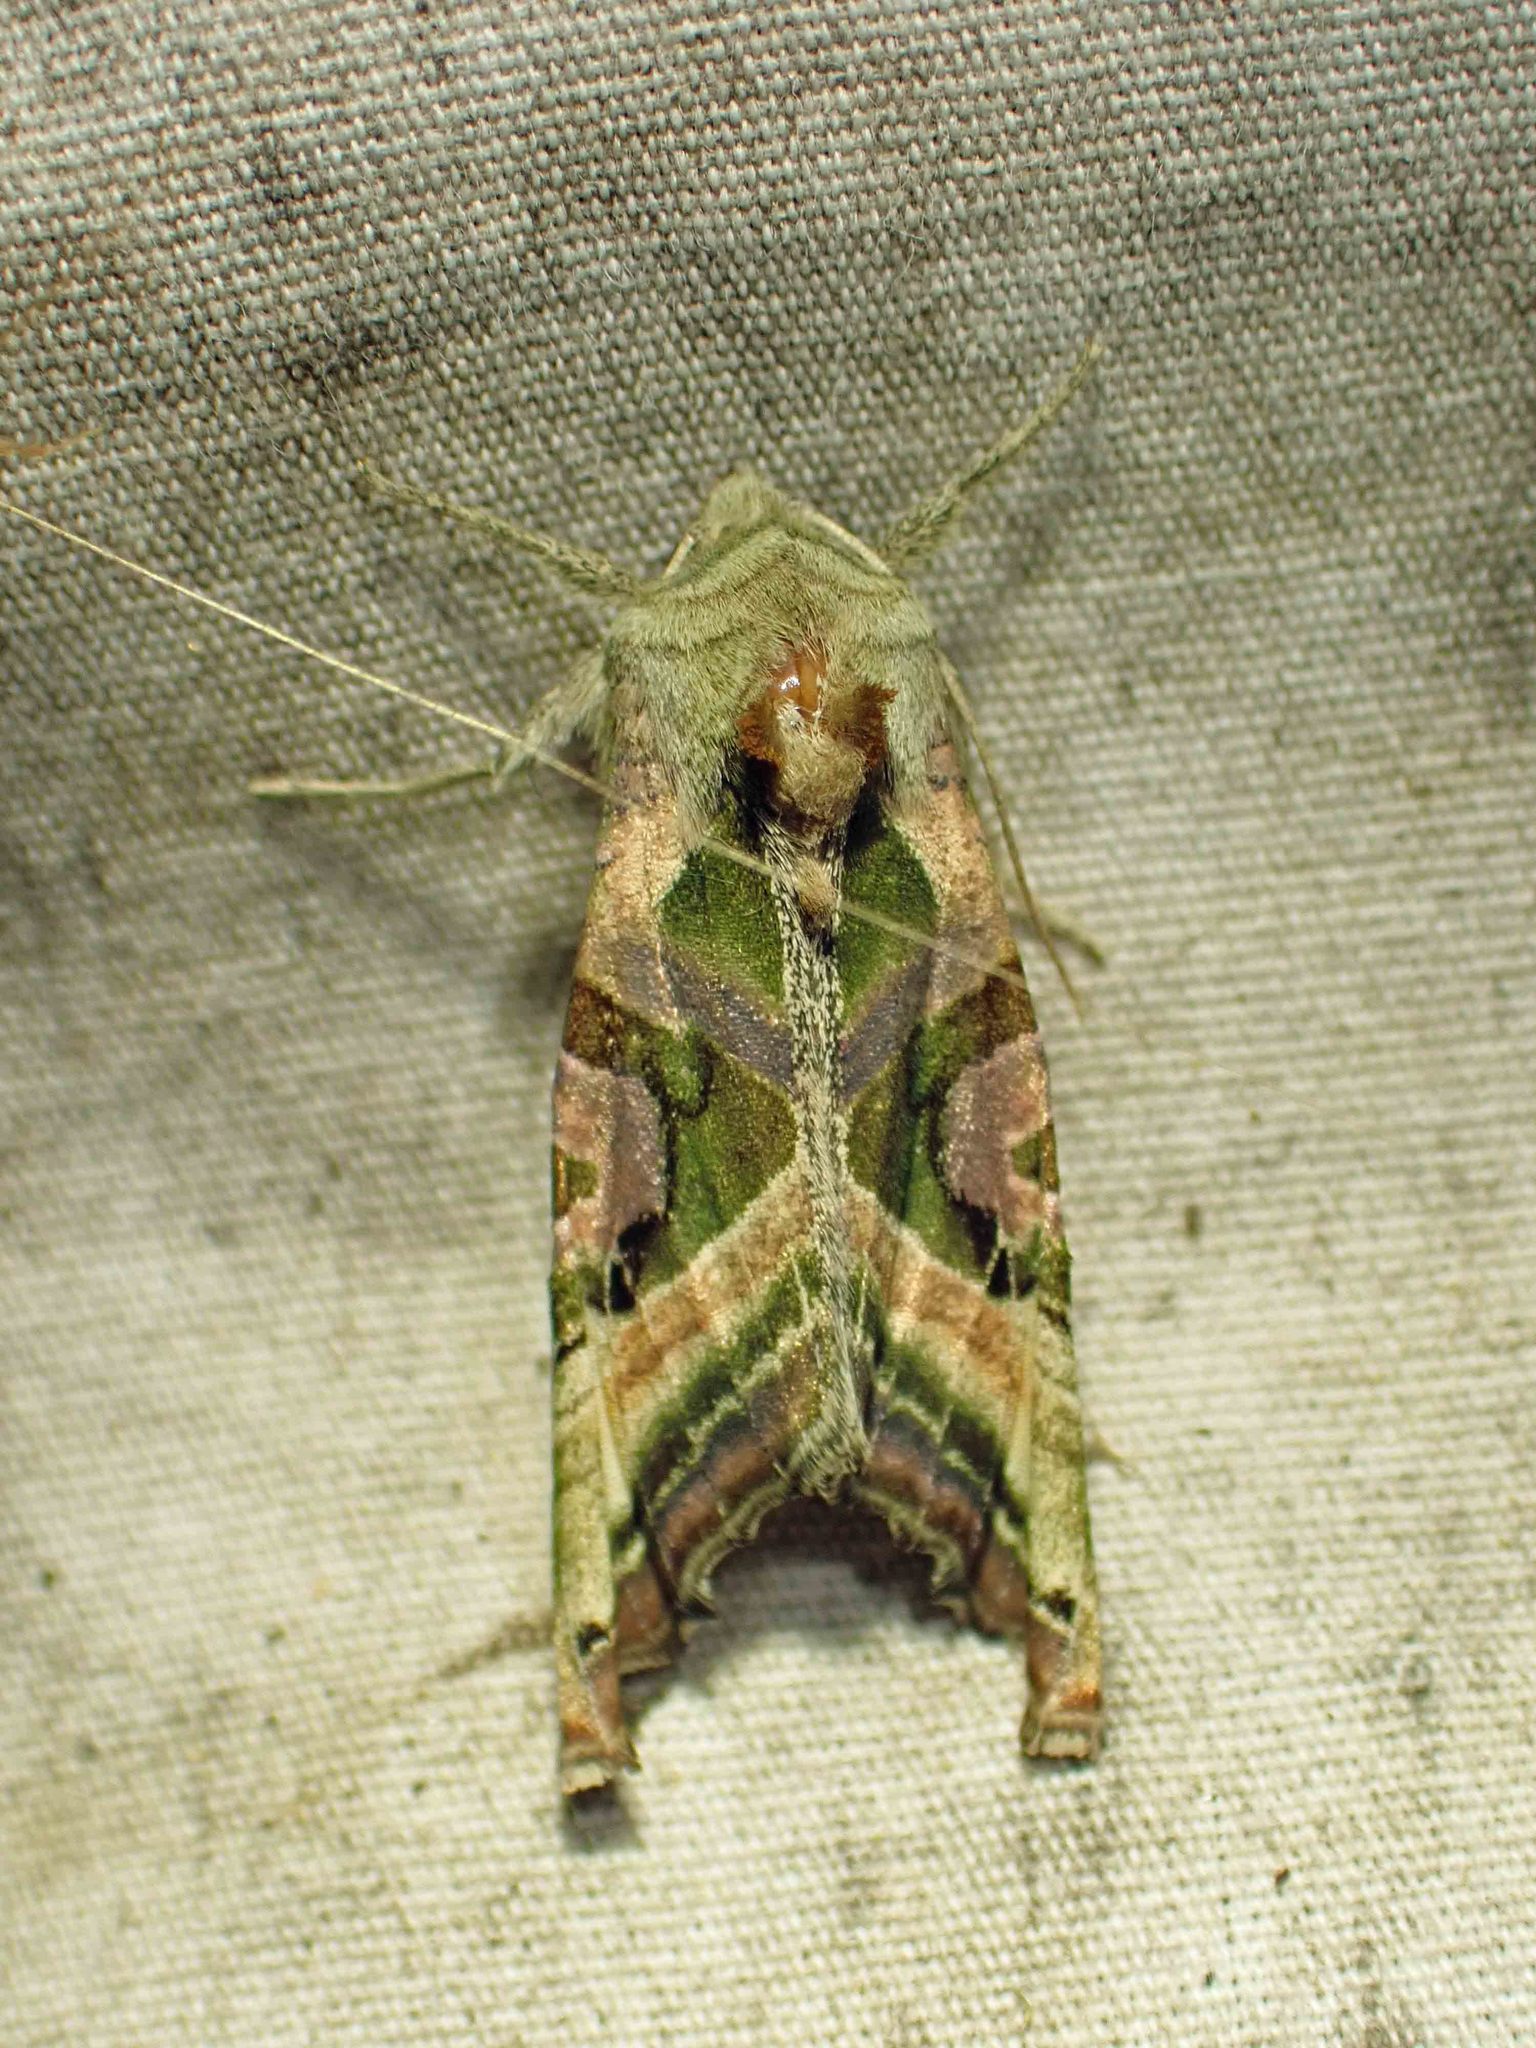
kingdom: Animalia
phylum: Arthropoda
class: Insecta
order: Lepidoptera
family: Noctuidae
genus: Phlogophora
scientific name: Phlogophora iris
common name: Olive angle shades
